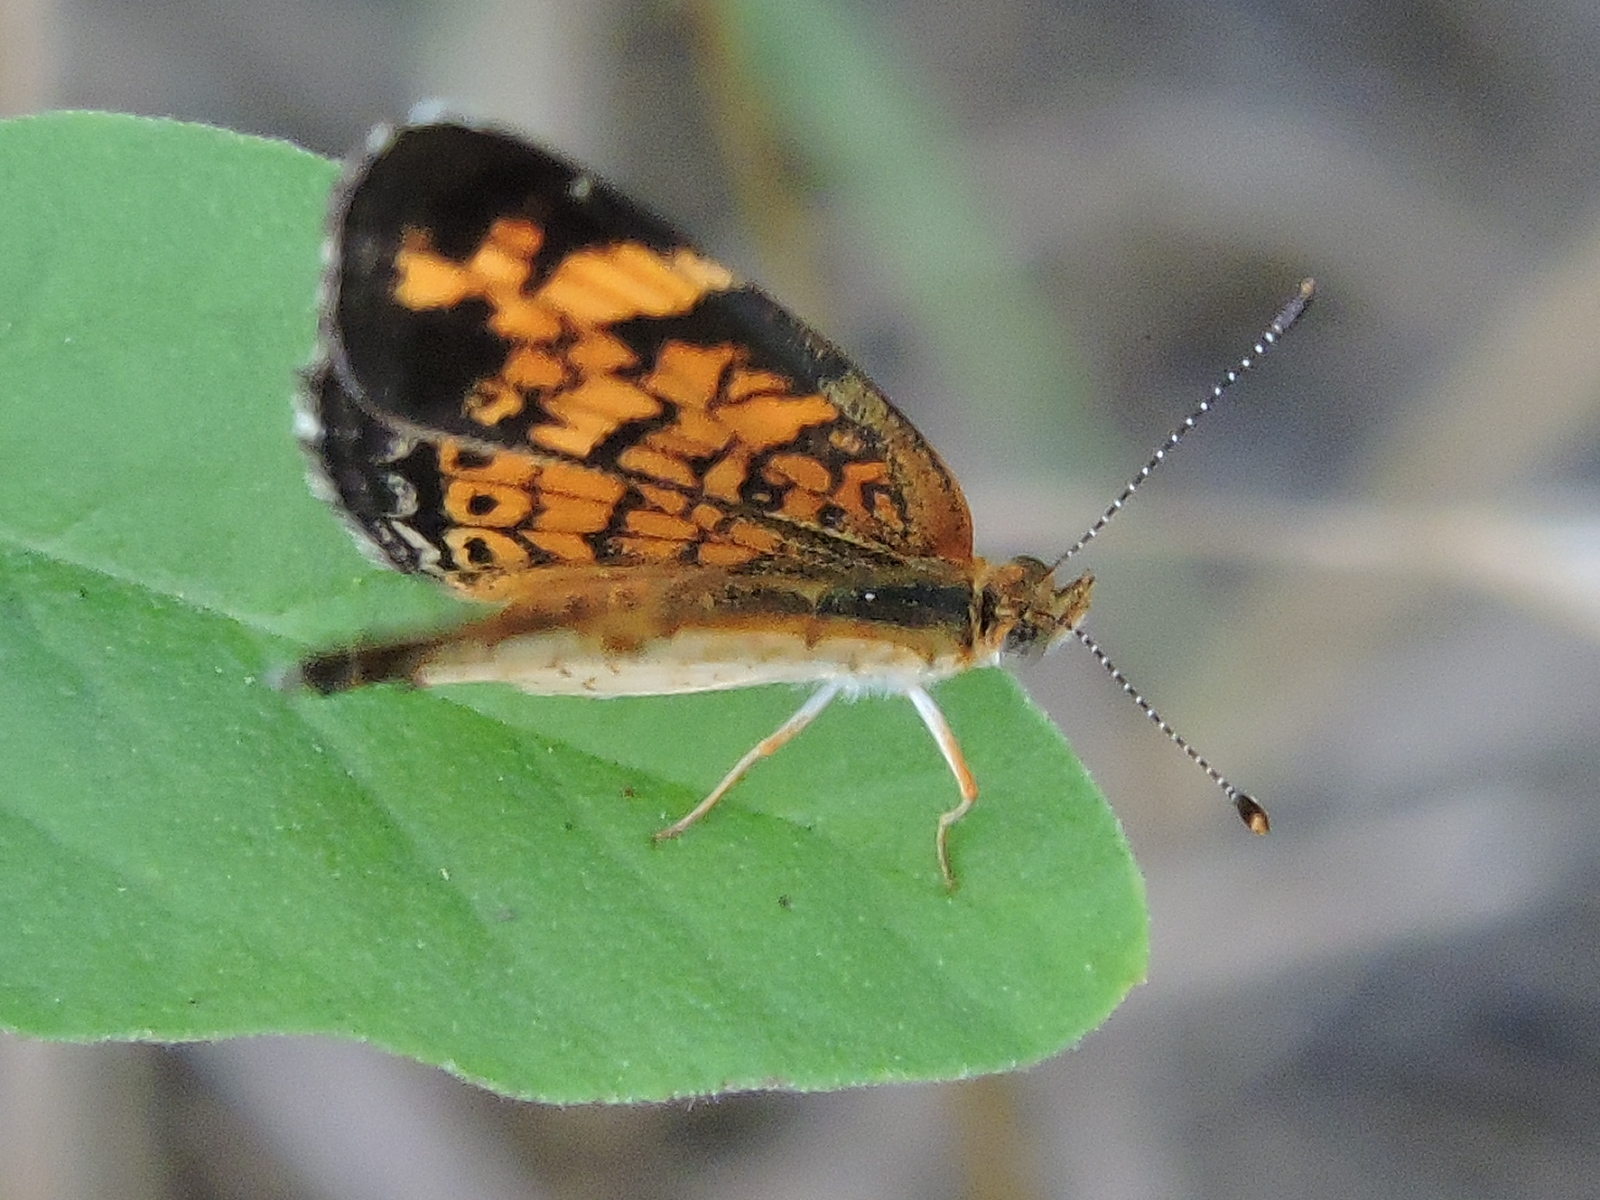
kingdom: Animalia
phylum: Arthropoda
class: Insecta
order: Lepidoptera
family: Nymphalidae
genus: Phyciodes
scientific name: Phyciodes tharos
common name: Pearl crescent
